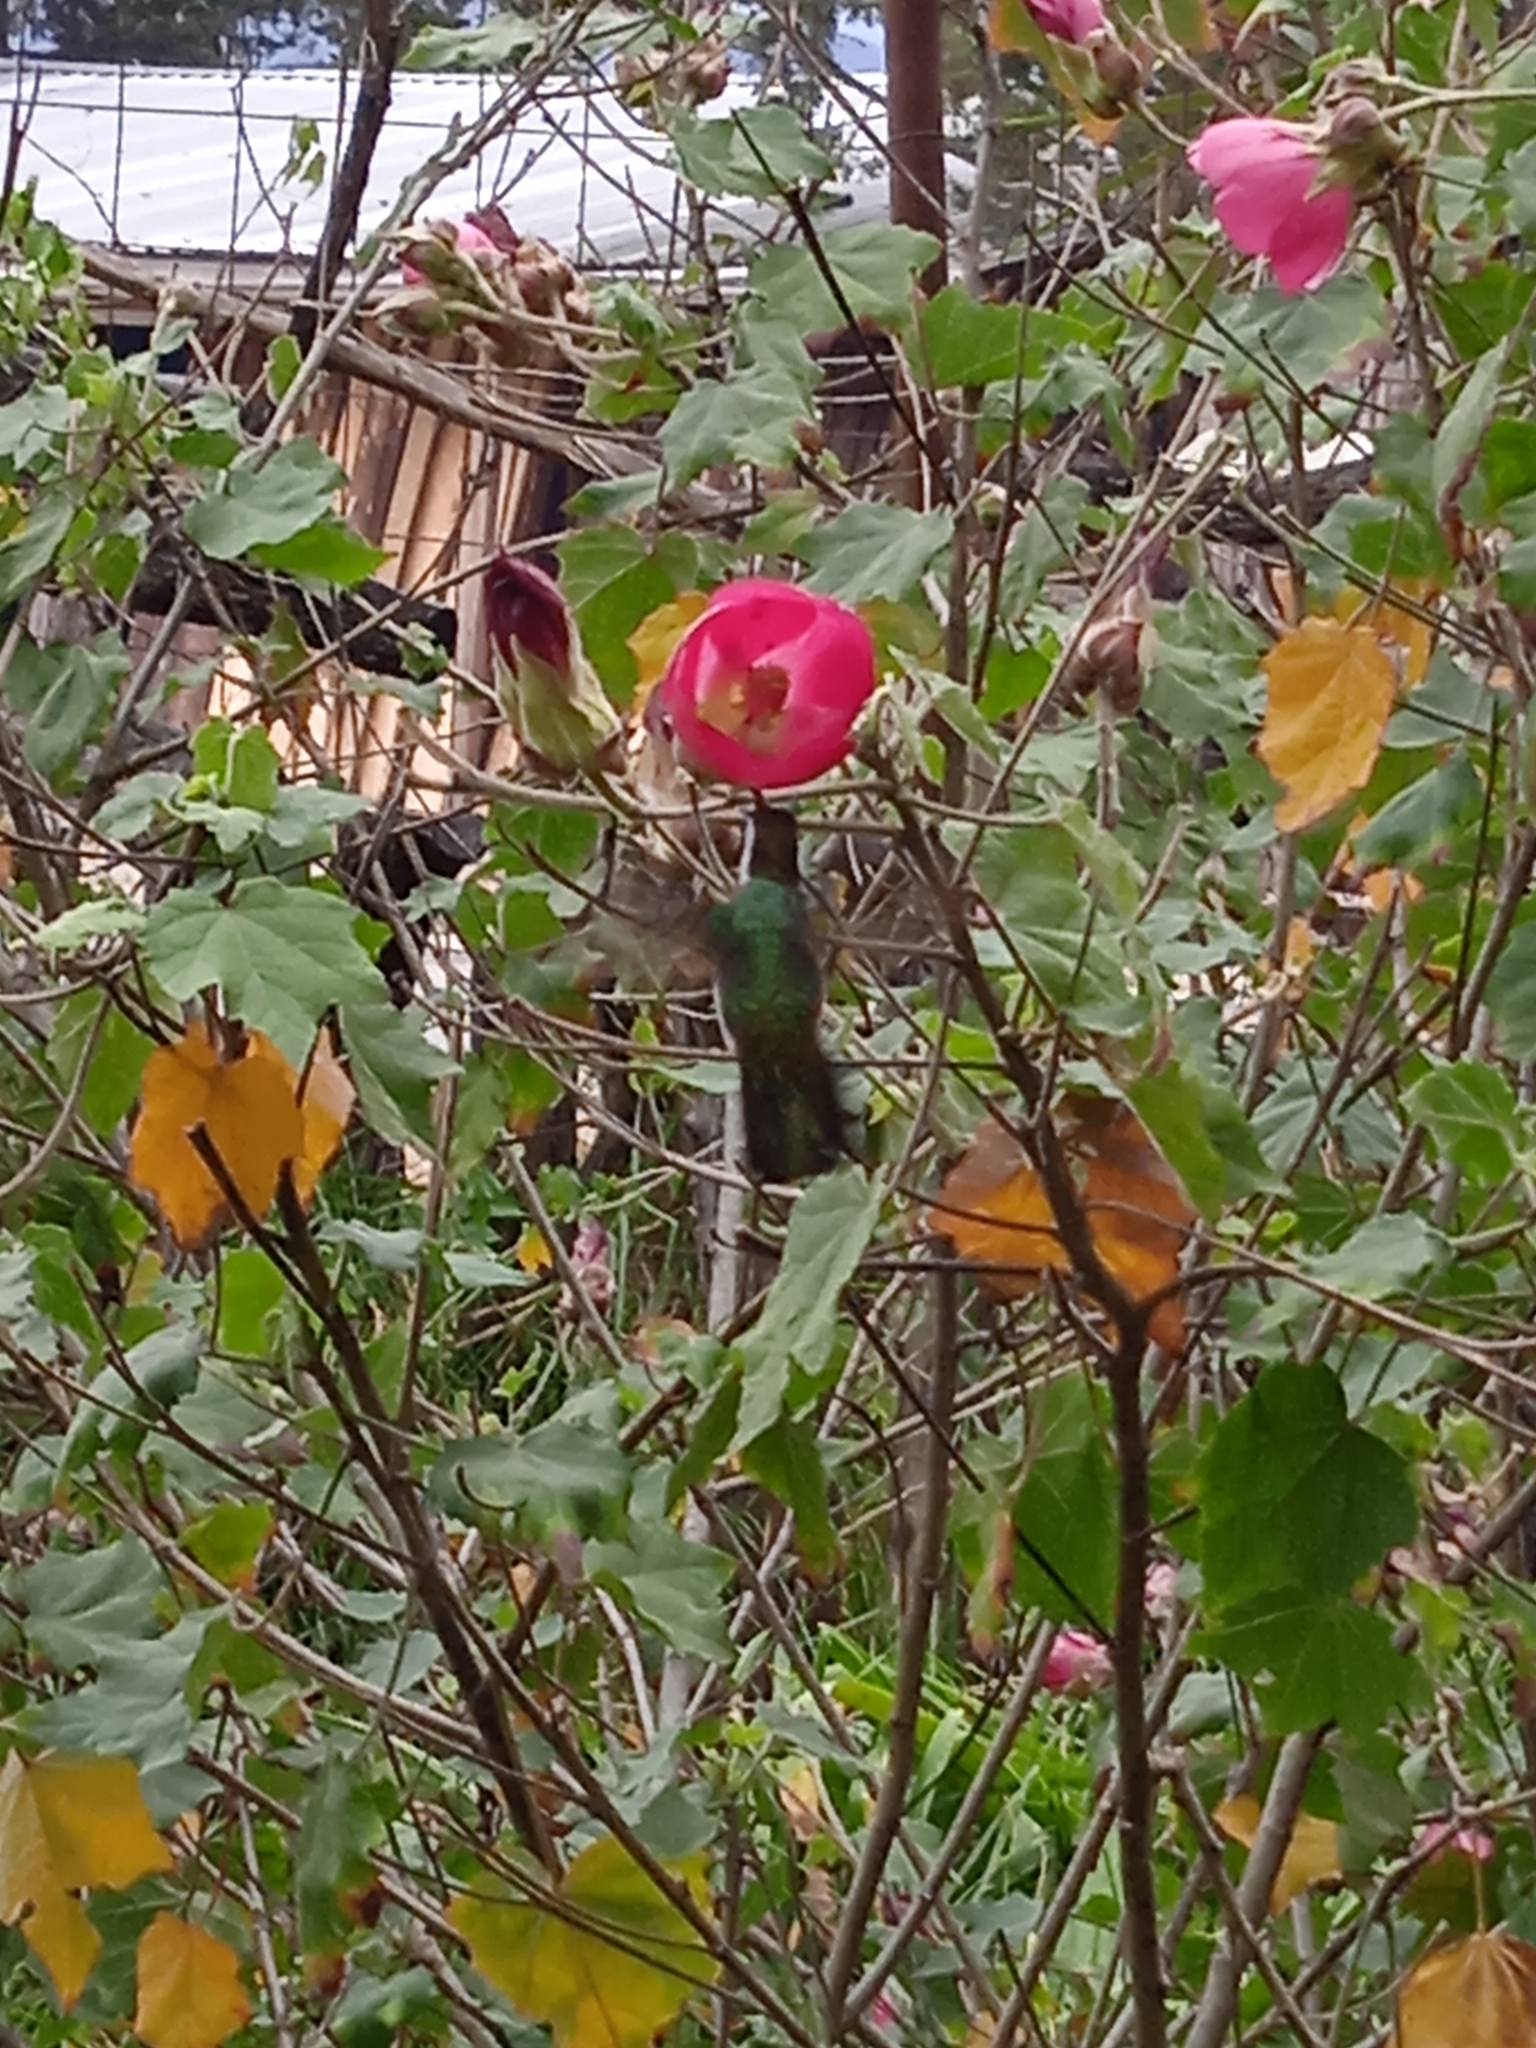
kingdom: Animalia
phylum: Chordata
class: Aves
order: Apodiformes
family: Trochilidae
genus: Basilinna
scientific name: Basilinna leucotis
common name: White-eared hummingbird
